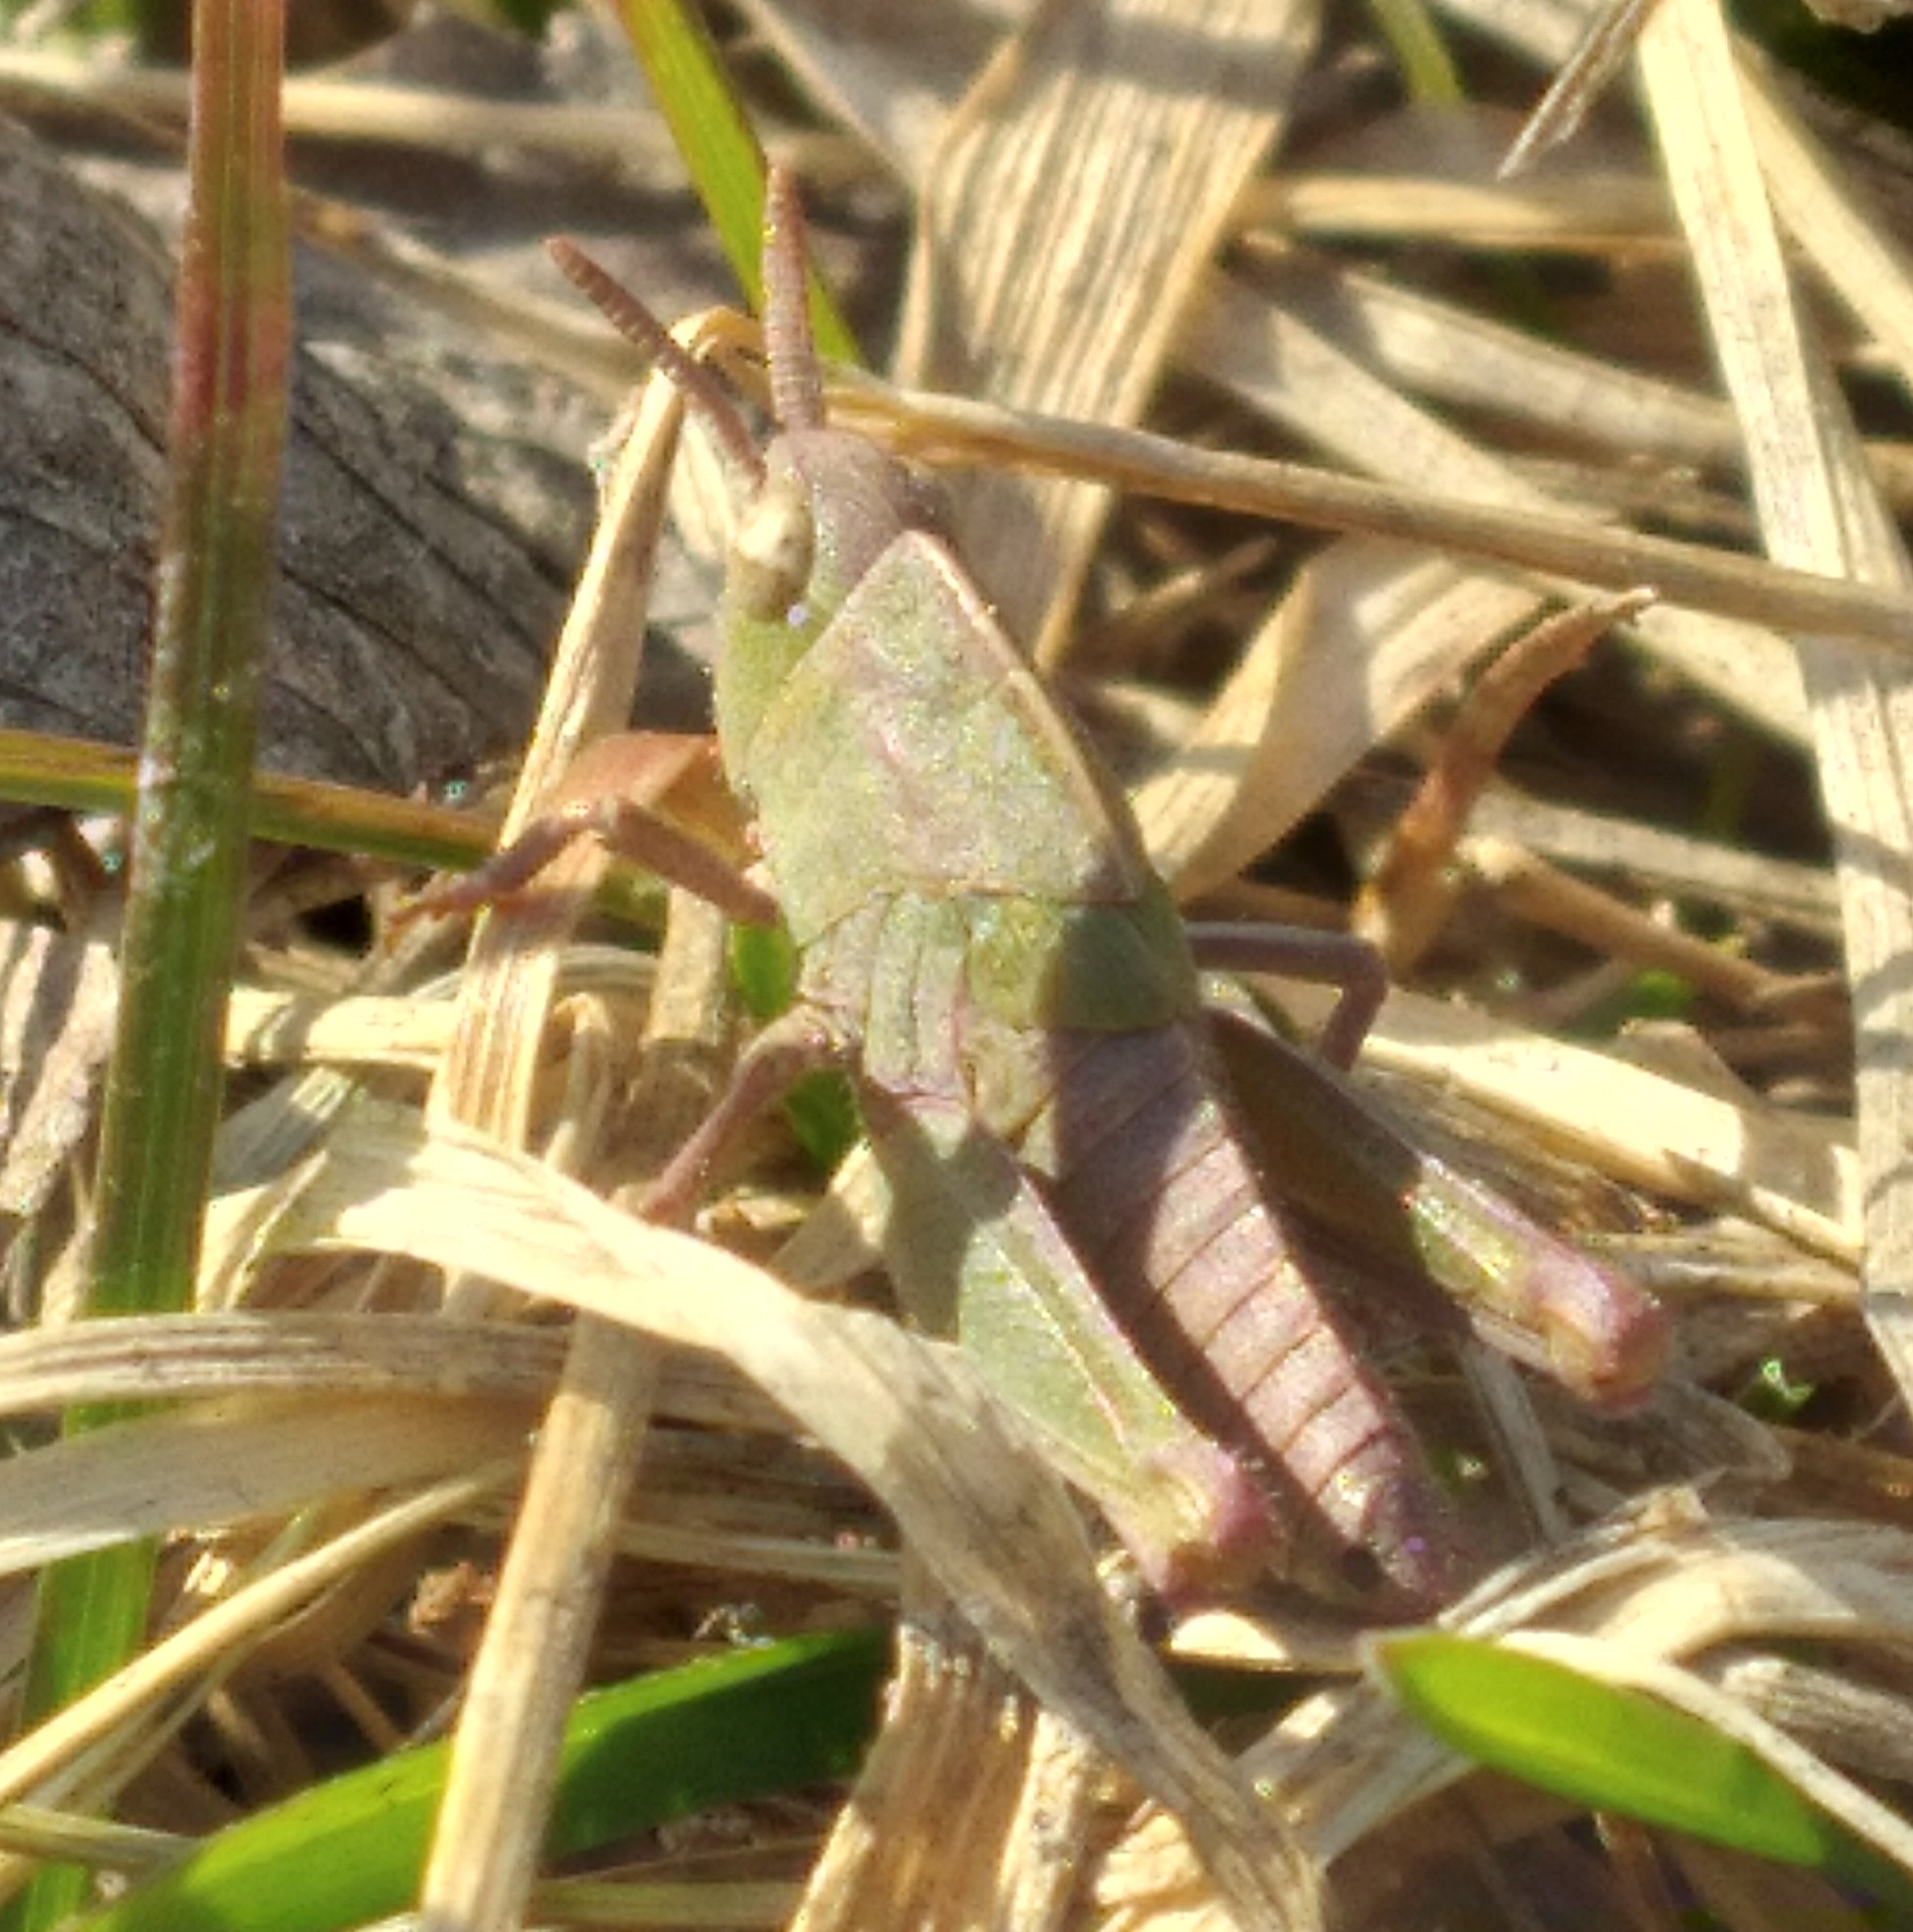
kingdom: Animalia
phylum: Arthropoda
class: Insecta
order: Orthoptera
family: Acrididae
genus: Chortophaga
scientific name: Chortophaga viridifasciata
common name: Green-striped grasshopper
